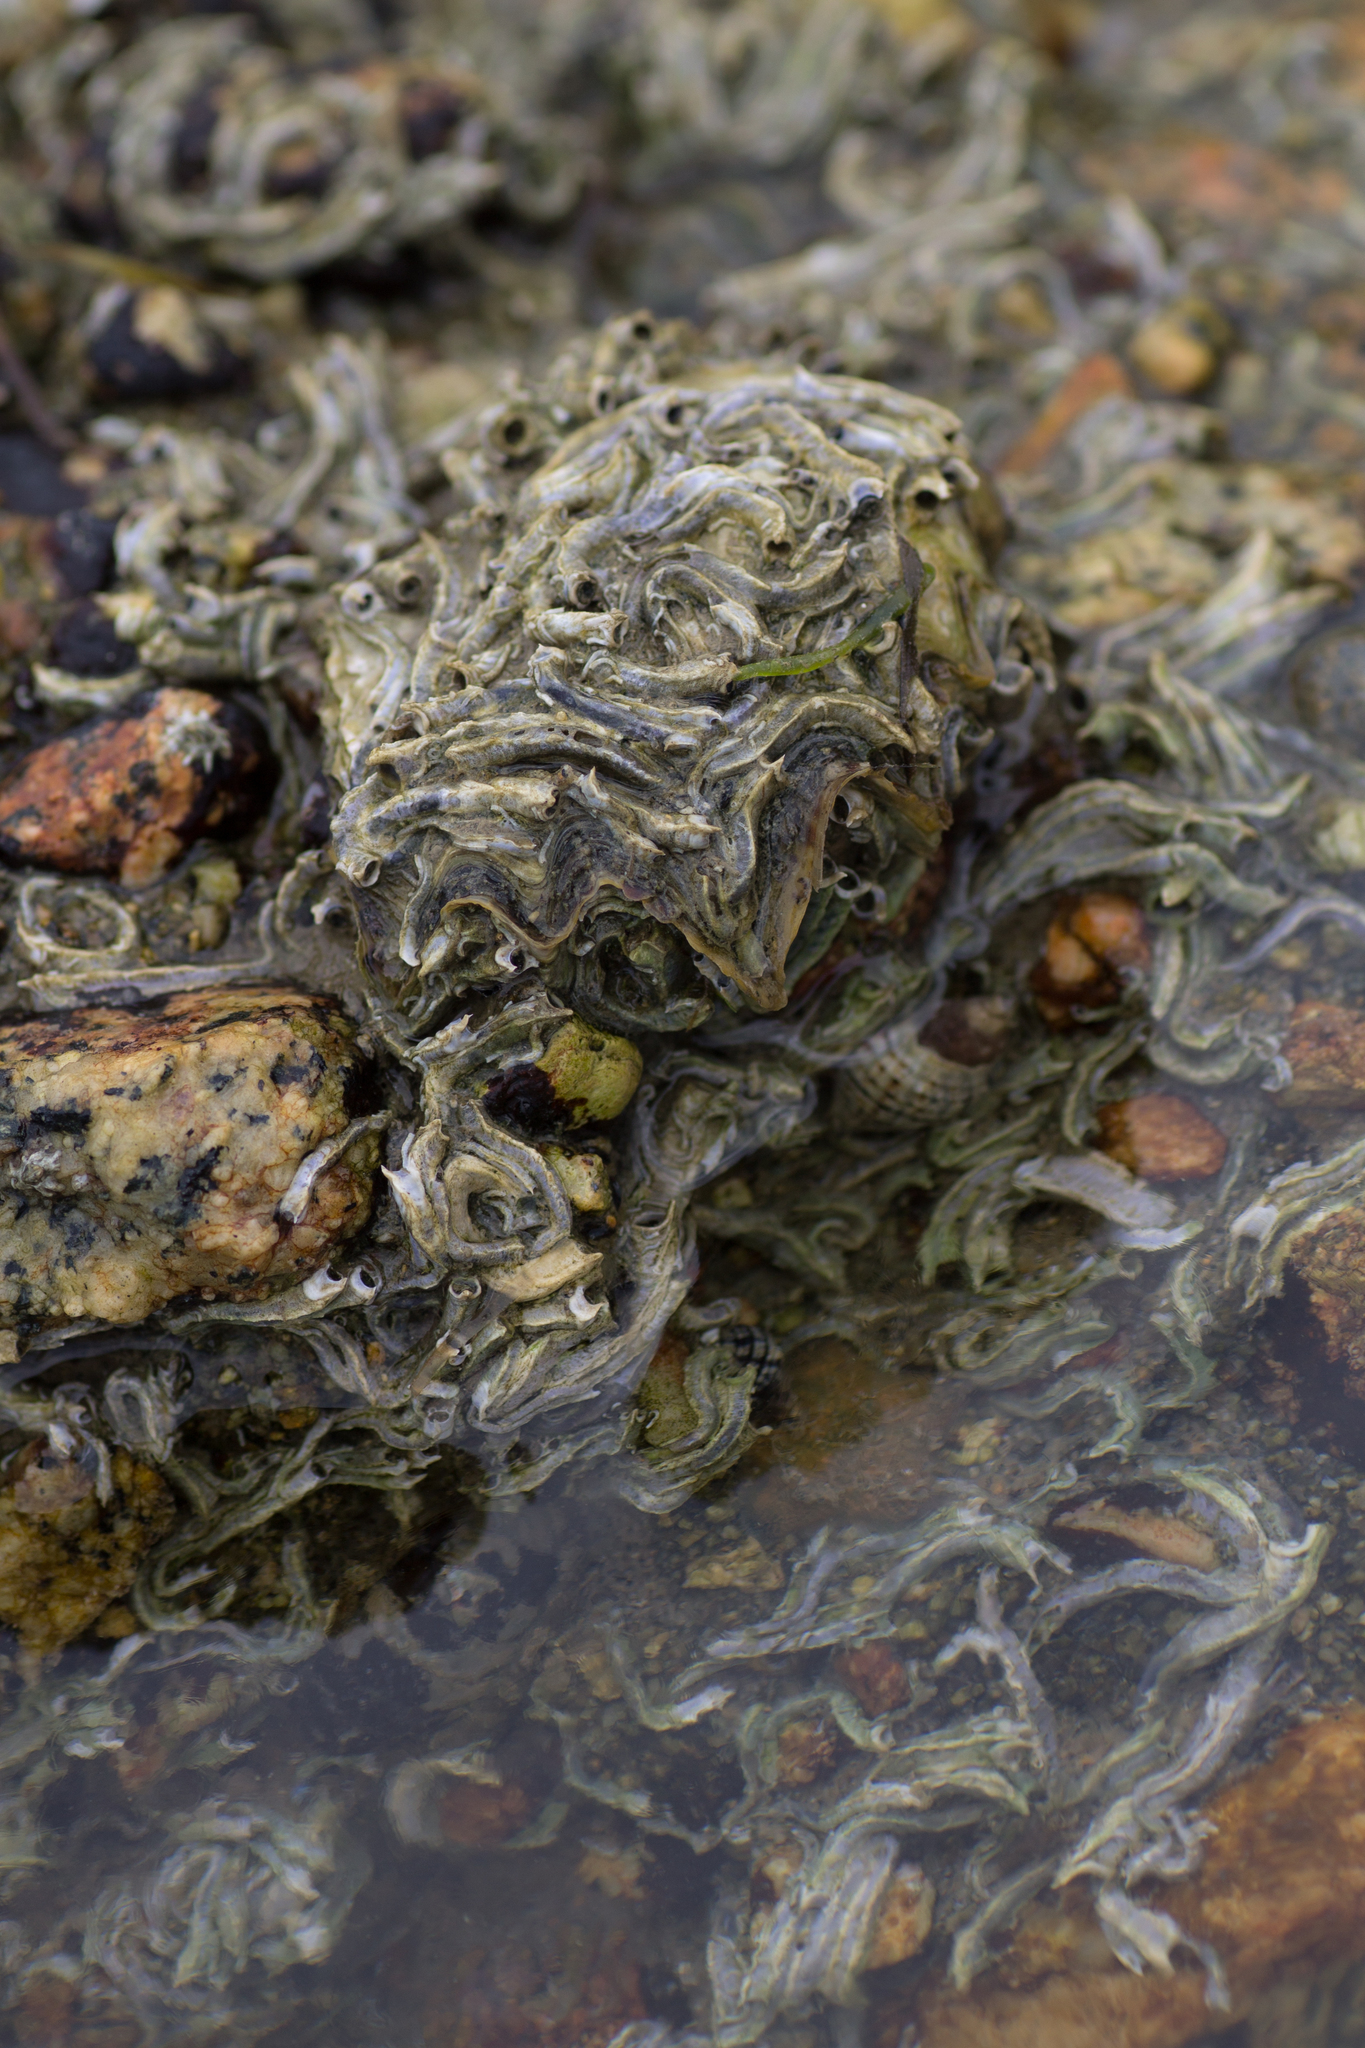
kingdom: Animalia
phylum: Annelida
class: Polychaeta
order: Sabellida
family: Serpulidae
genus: Spirobranchus
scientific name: Spirobranchus cariniferus
